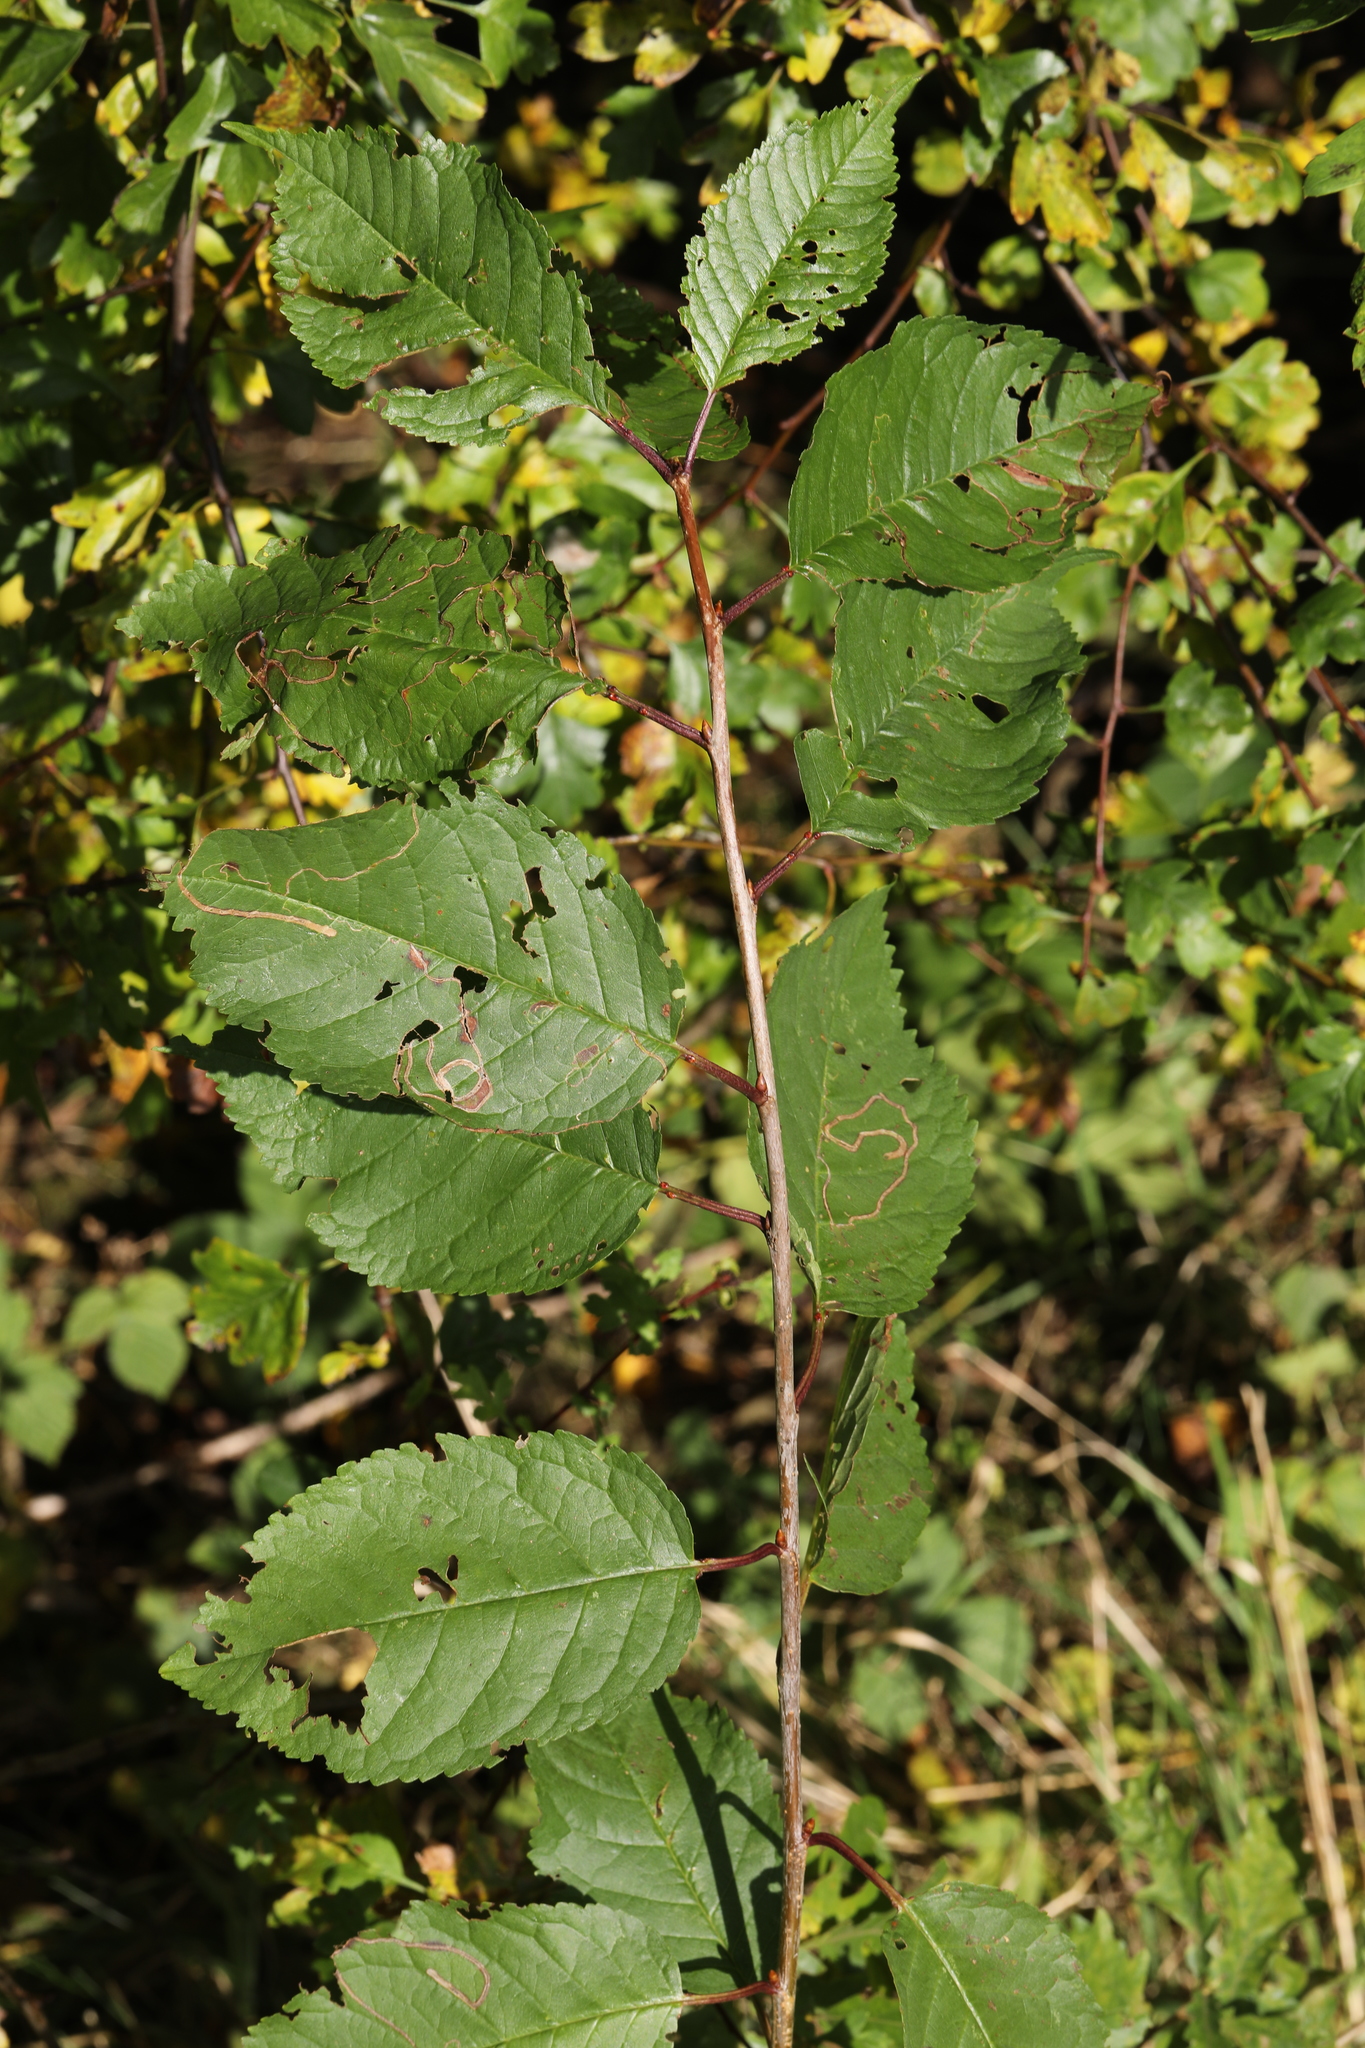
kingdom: Plantae
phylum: Tracheophyta
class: Magnoliopsida
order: Rosales
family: Rosaceae
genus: Prunus
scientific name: Prunus avium
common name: Sweet cherry
